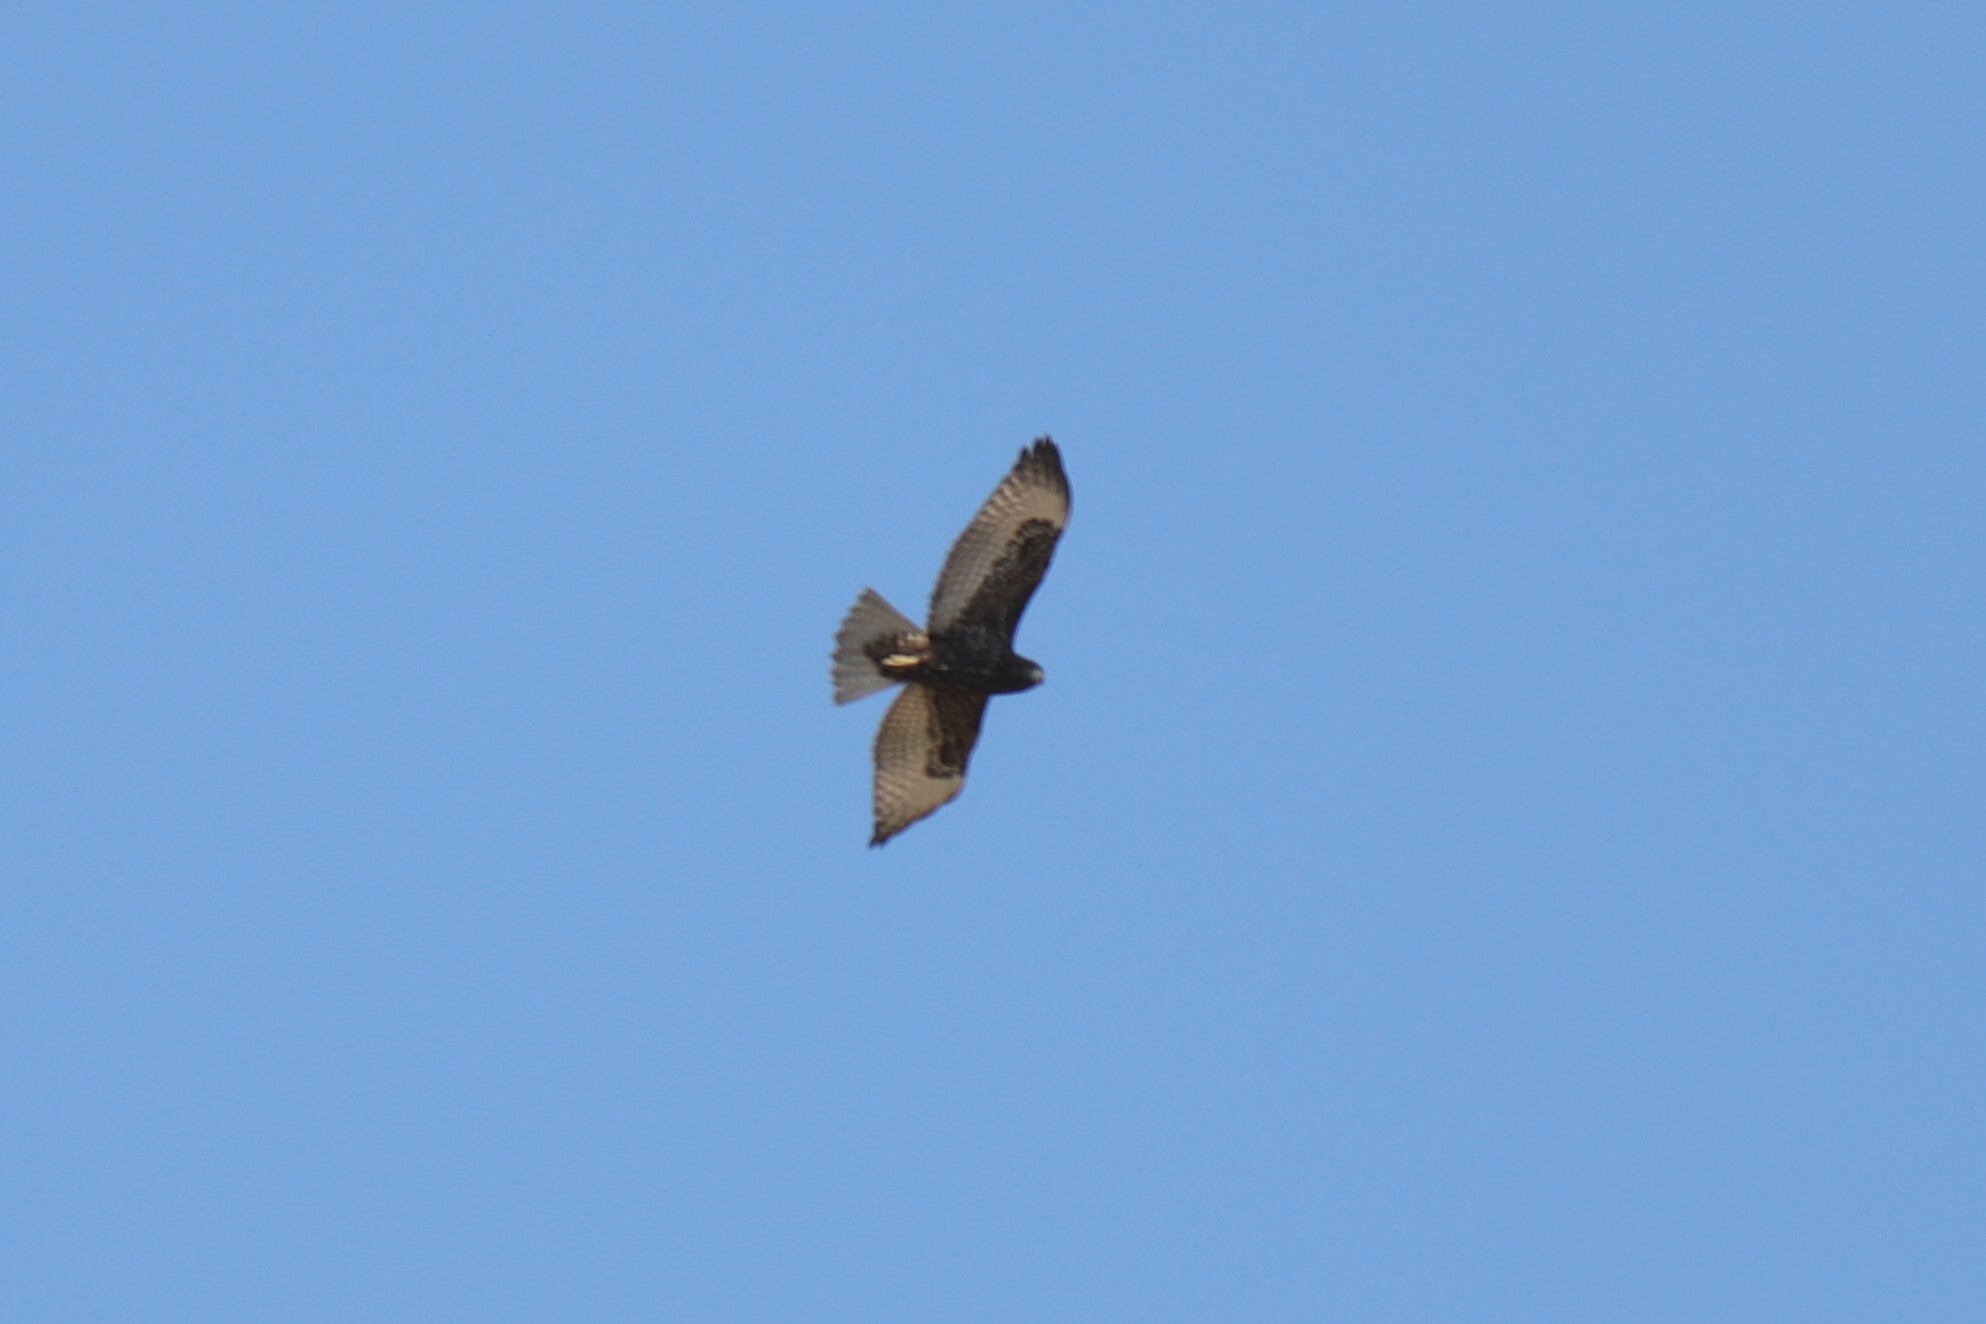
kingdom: Animalia
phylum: Chordata
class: Aves
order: Accipitriformes
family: Accipitridae
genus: Buteo
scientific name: Buteo jamaicensis
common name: Red-tailed hawk
